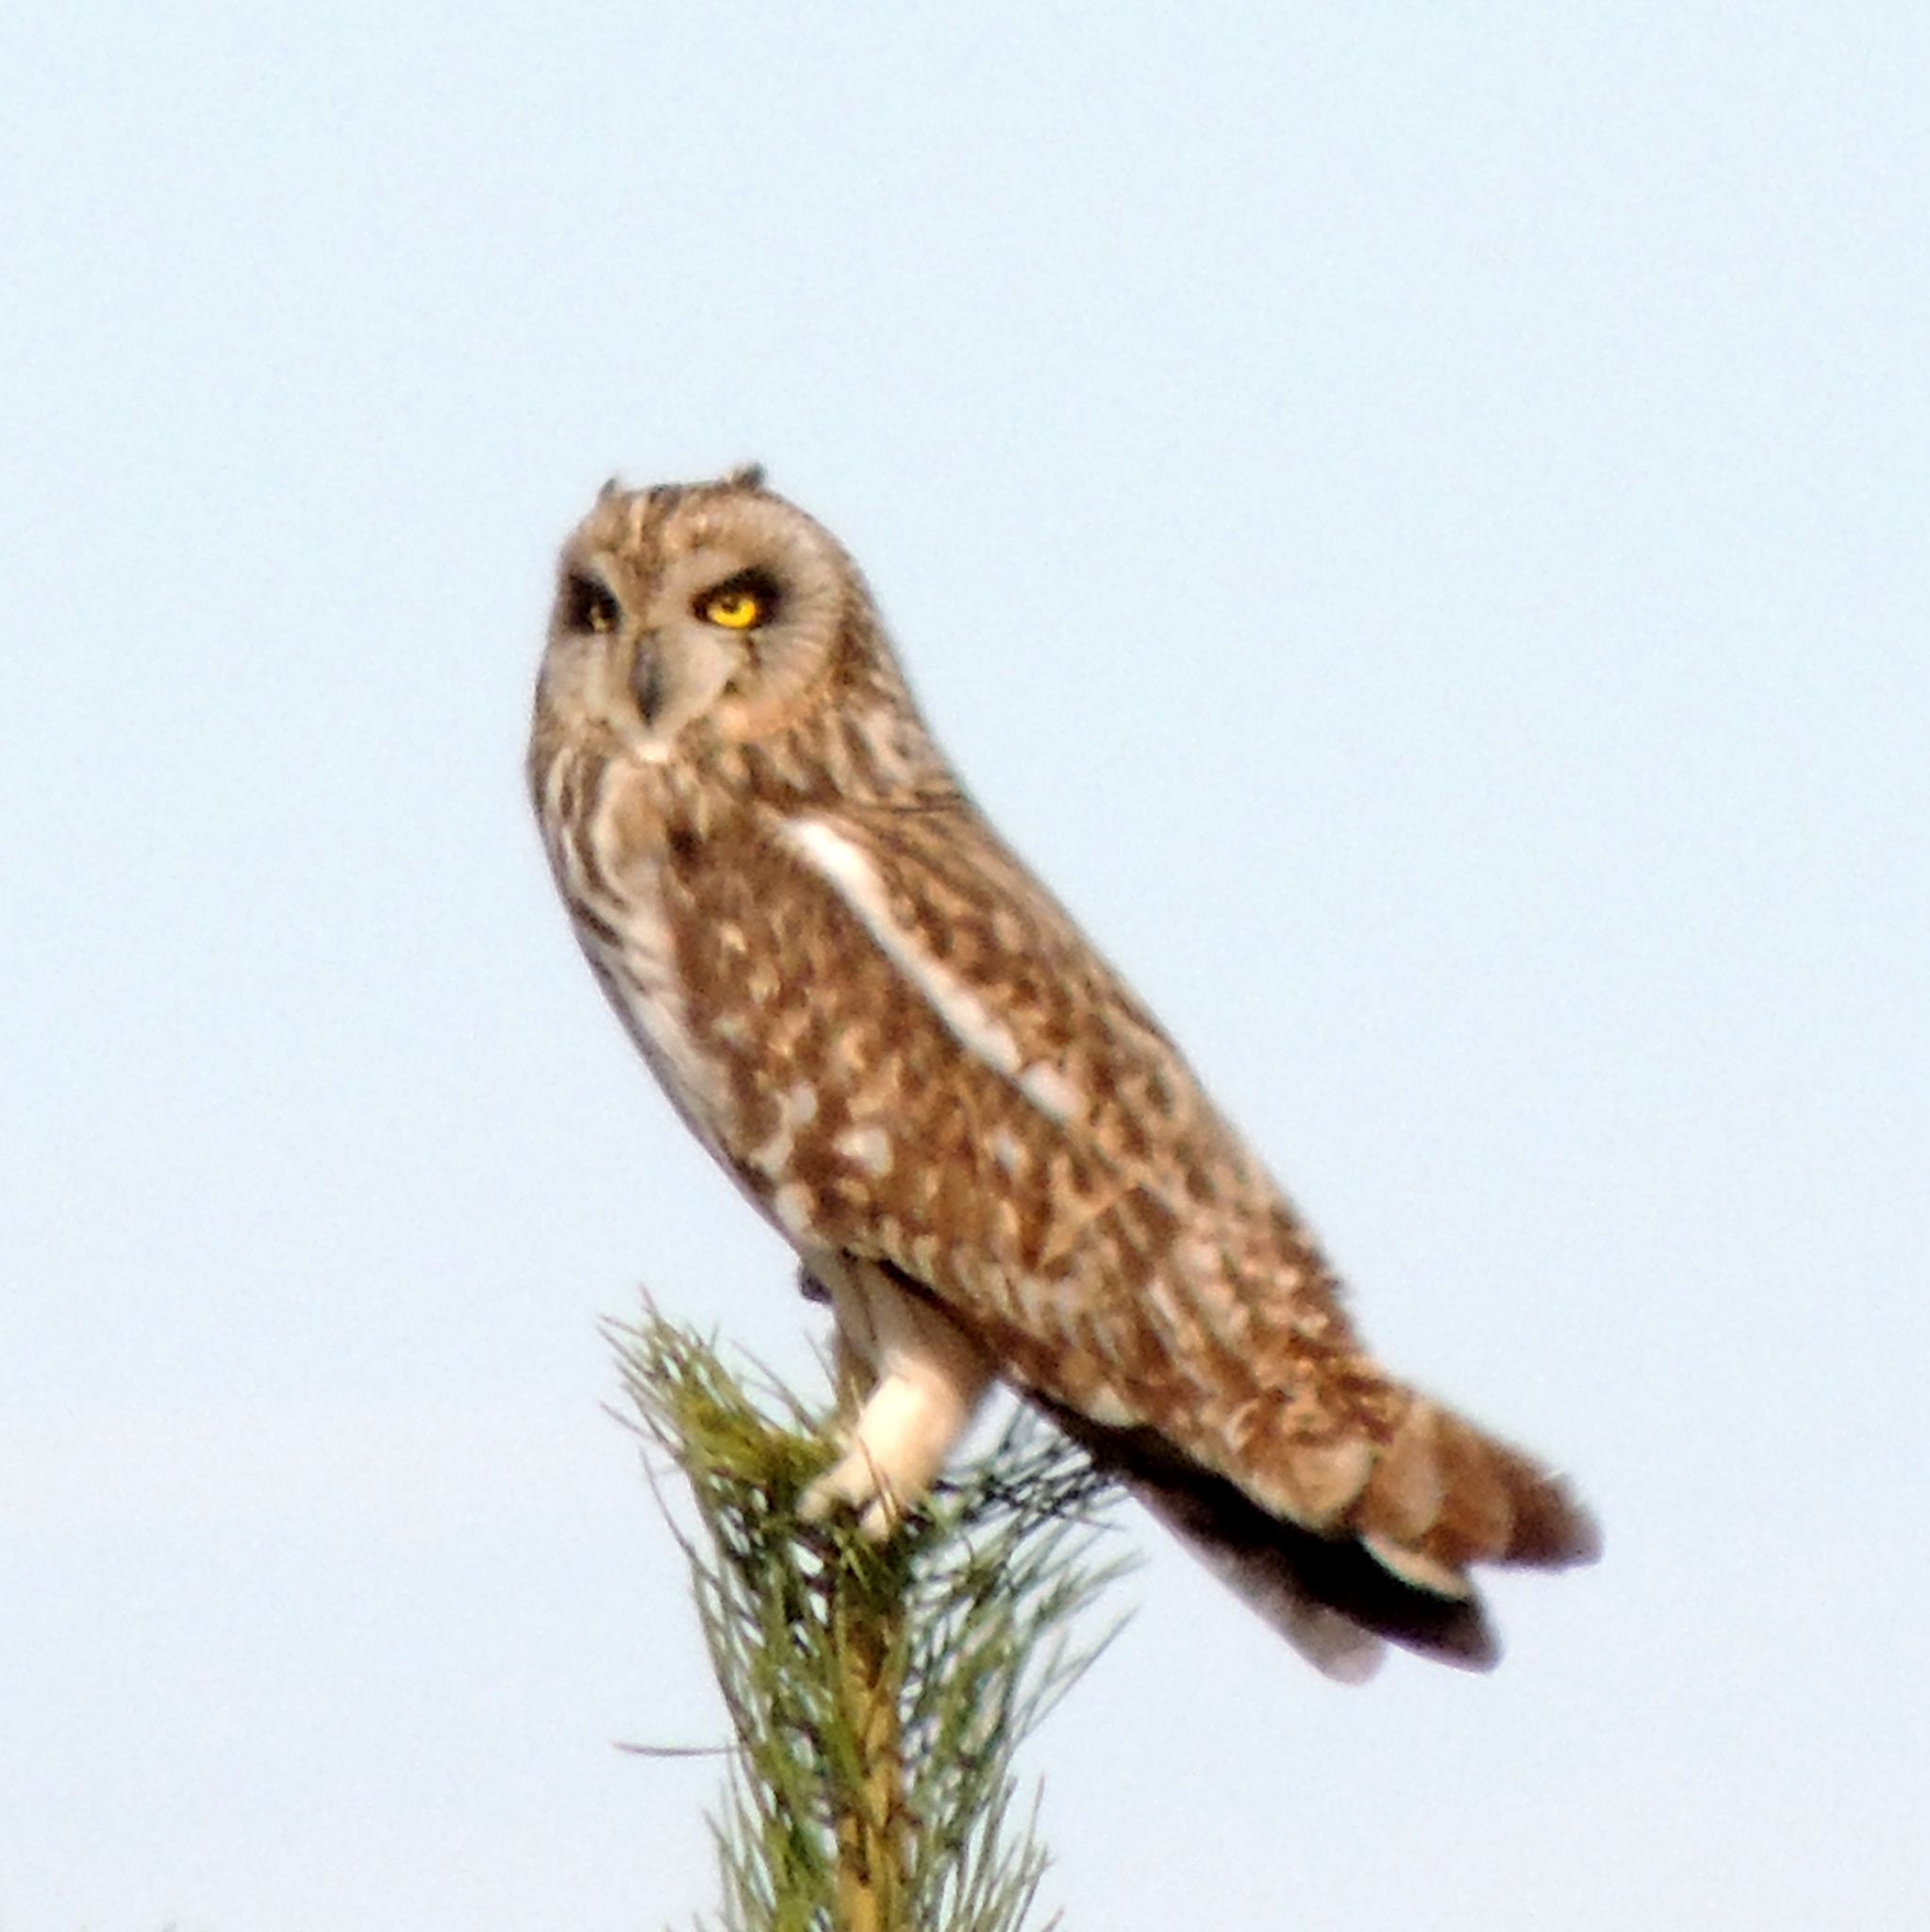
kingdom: Animalia
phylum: Chordata
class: Aves
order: Strigiformes
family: Strigidae
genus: Asio
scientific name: Asio flammeus
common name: Short-eared owl
